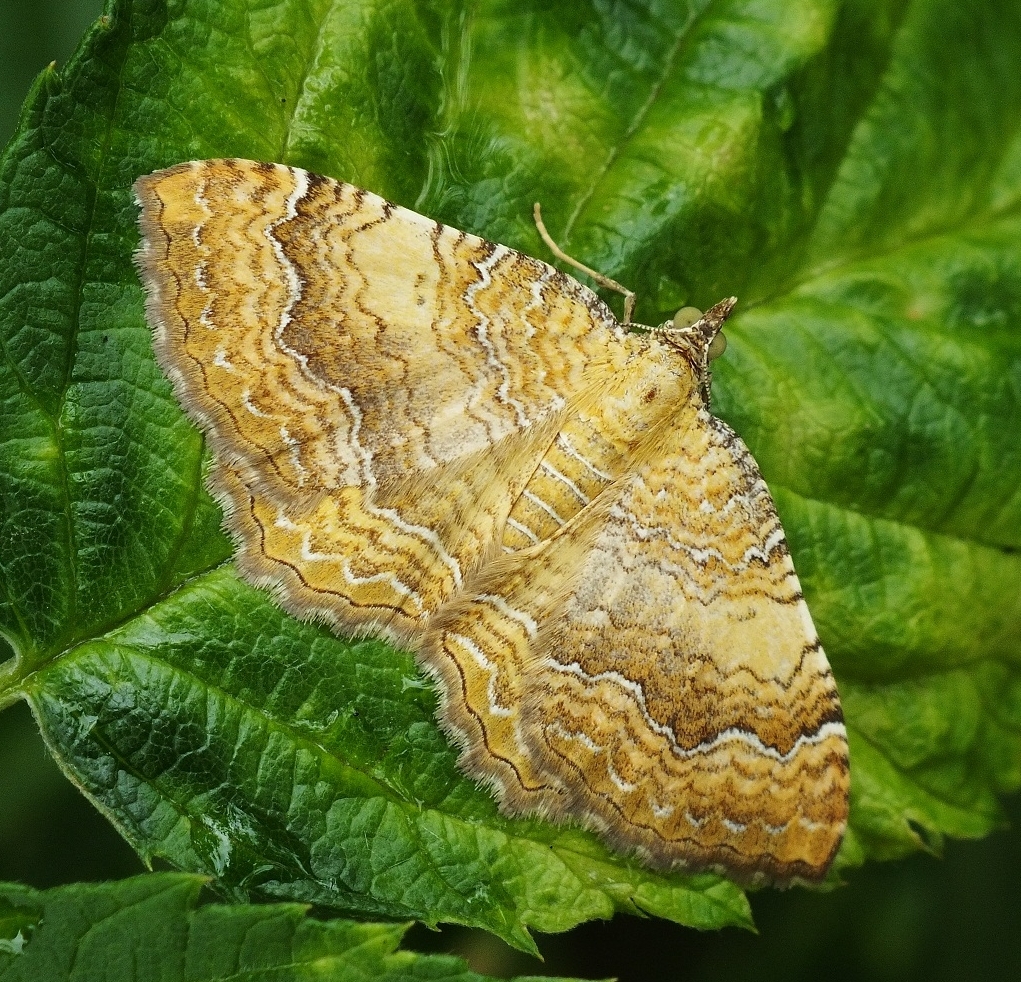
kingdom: Animalia
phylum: Arthropoda
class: Insecta
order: Lepidoptera
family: Geometridae
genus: Camptogramma
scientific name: Camptogramma bilineata
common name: Yellow shell
